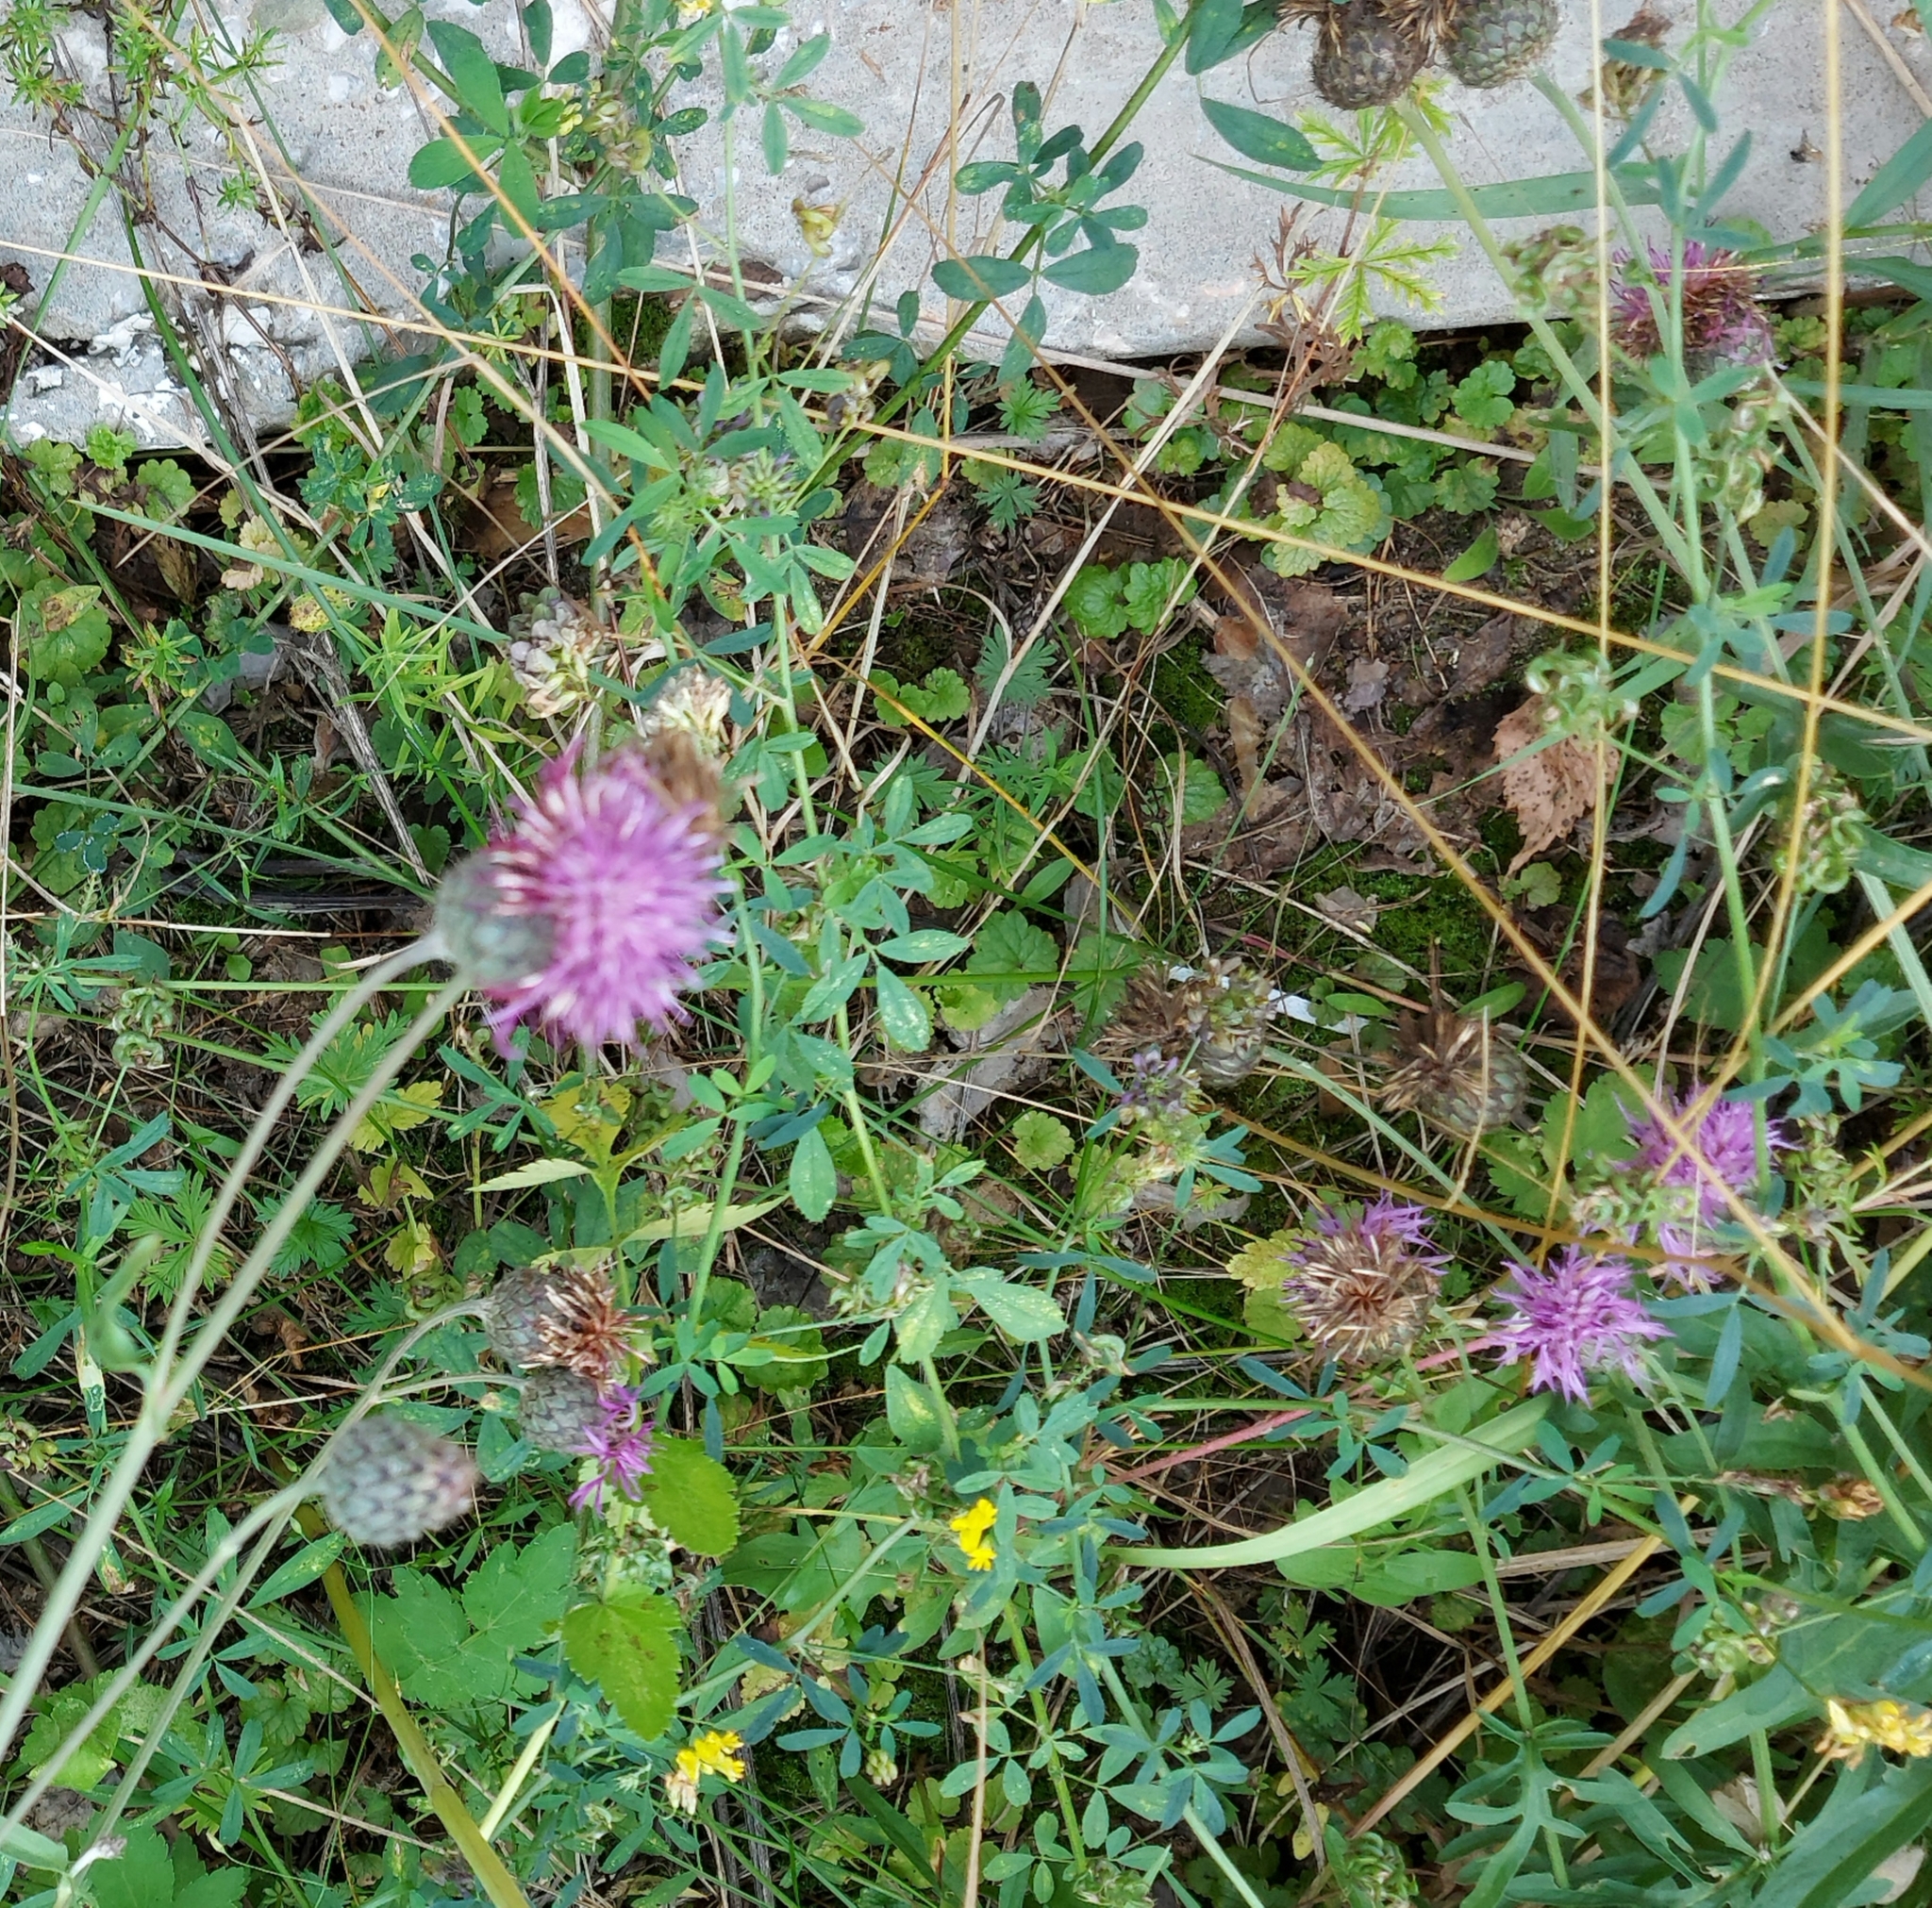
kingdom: Plantae
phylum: Tracheophyta
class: Magnoliopsida
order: Asterales
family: Asteraceae
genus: Centaurea
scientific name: Centaurea scabiosa
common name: Greater knapweed
